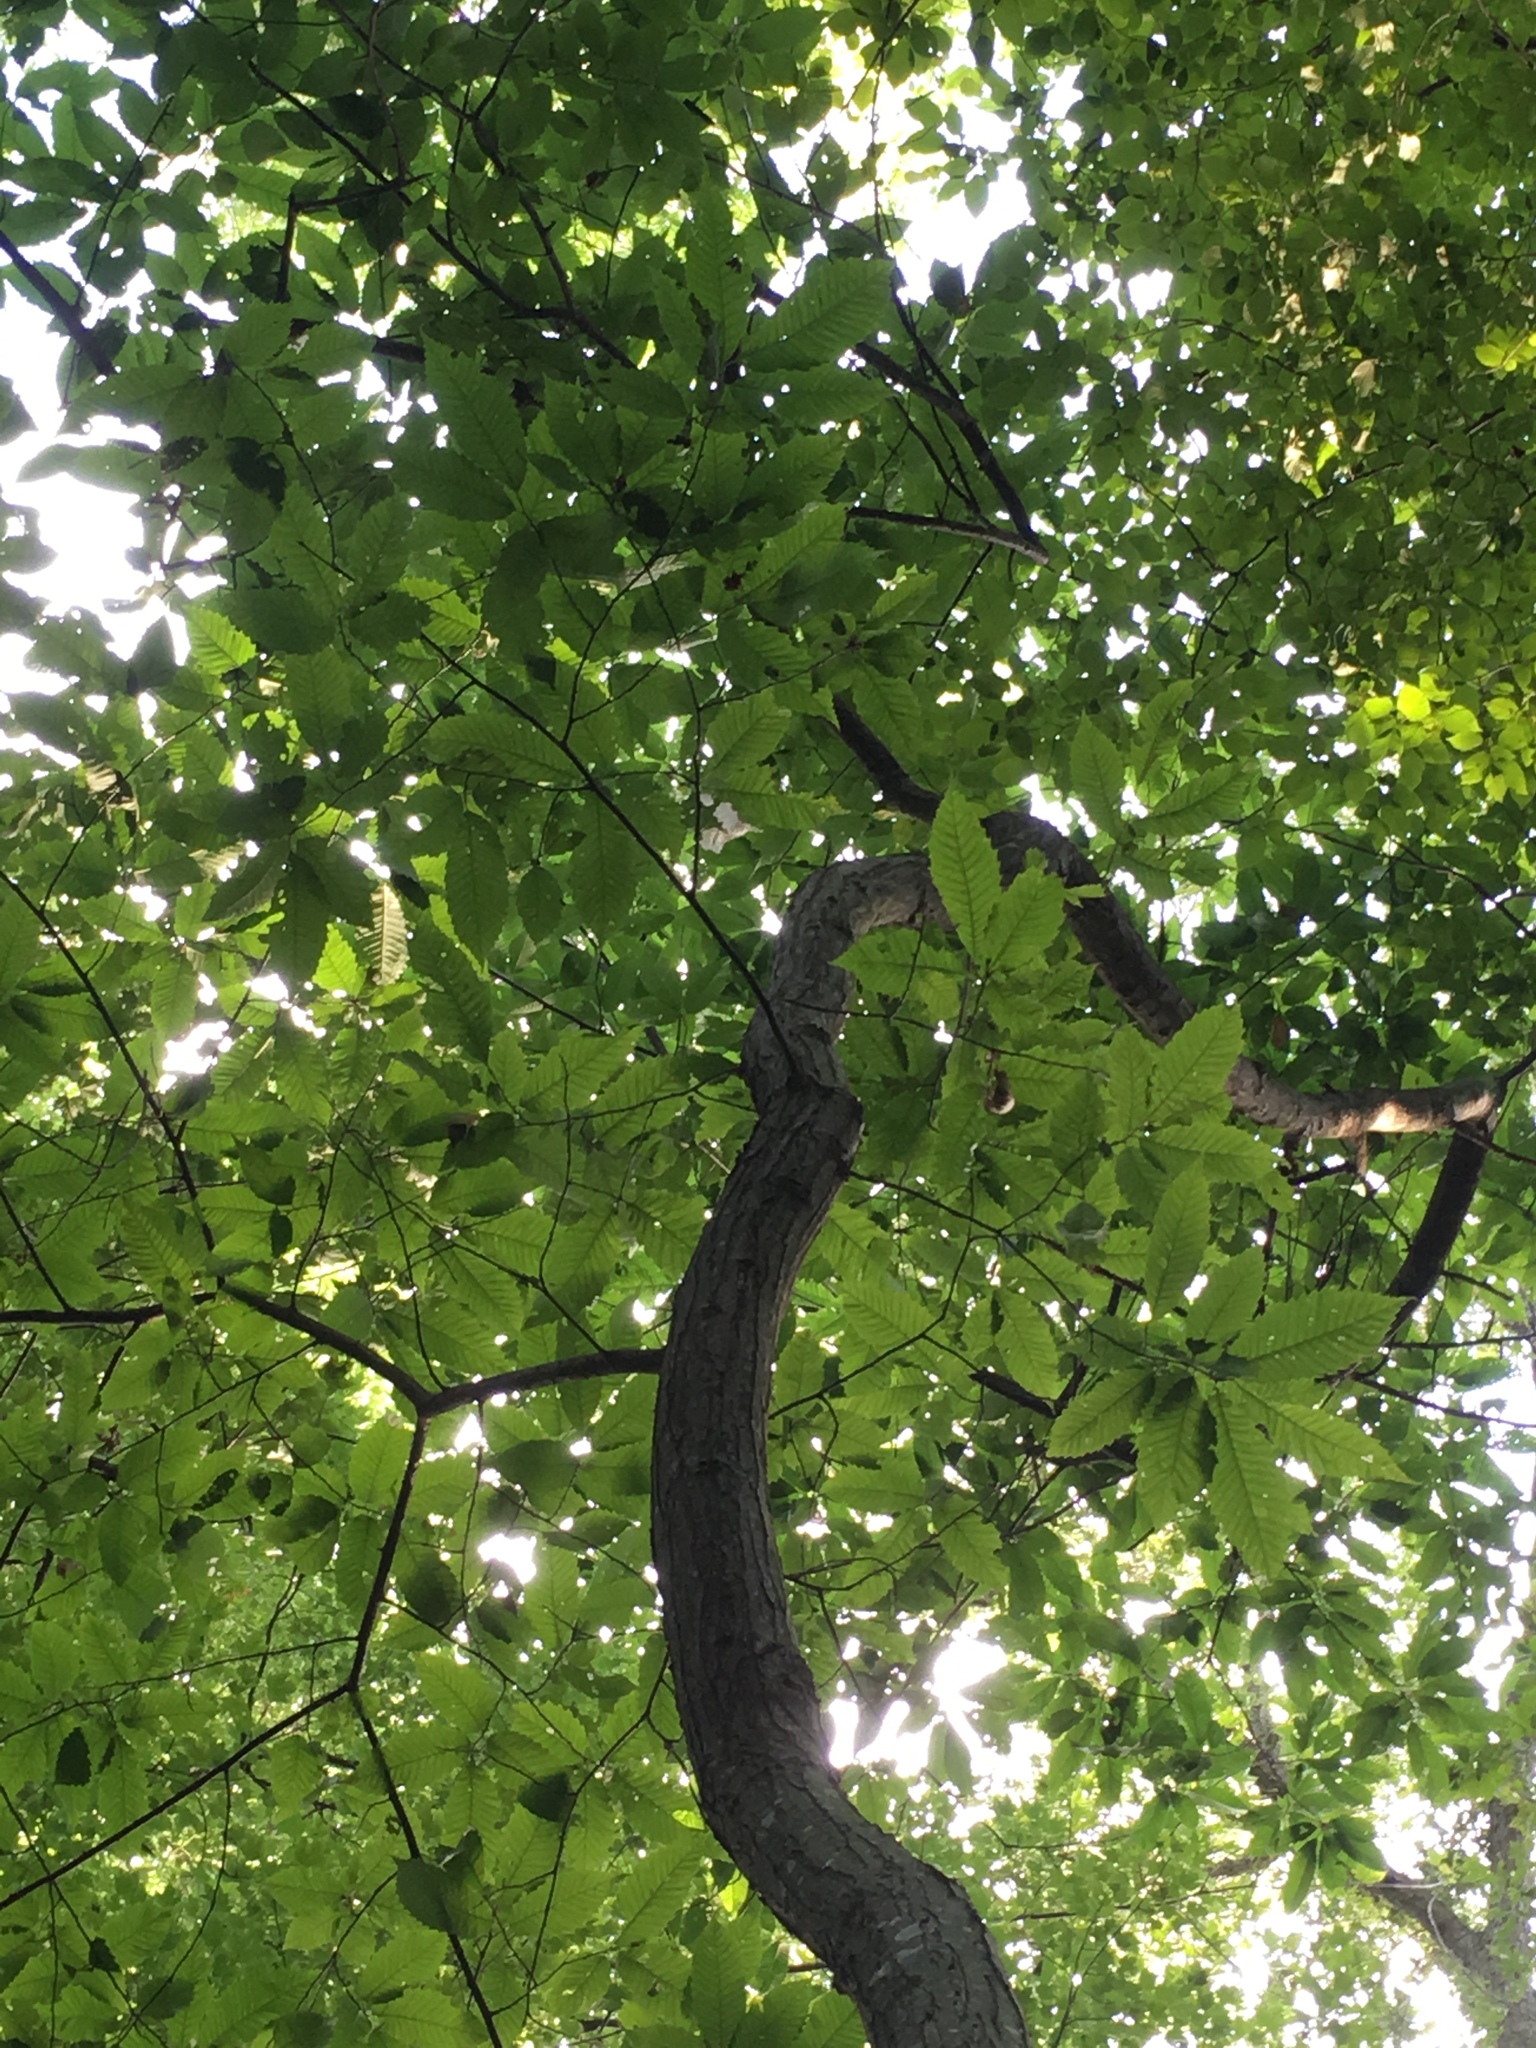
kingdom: Plantae
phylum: Tracheophyta
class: Magnoliopsida
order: Fagales
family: Fagaceae
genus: Castanea
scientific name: Castanea dentata
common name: American chestnut
